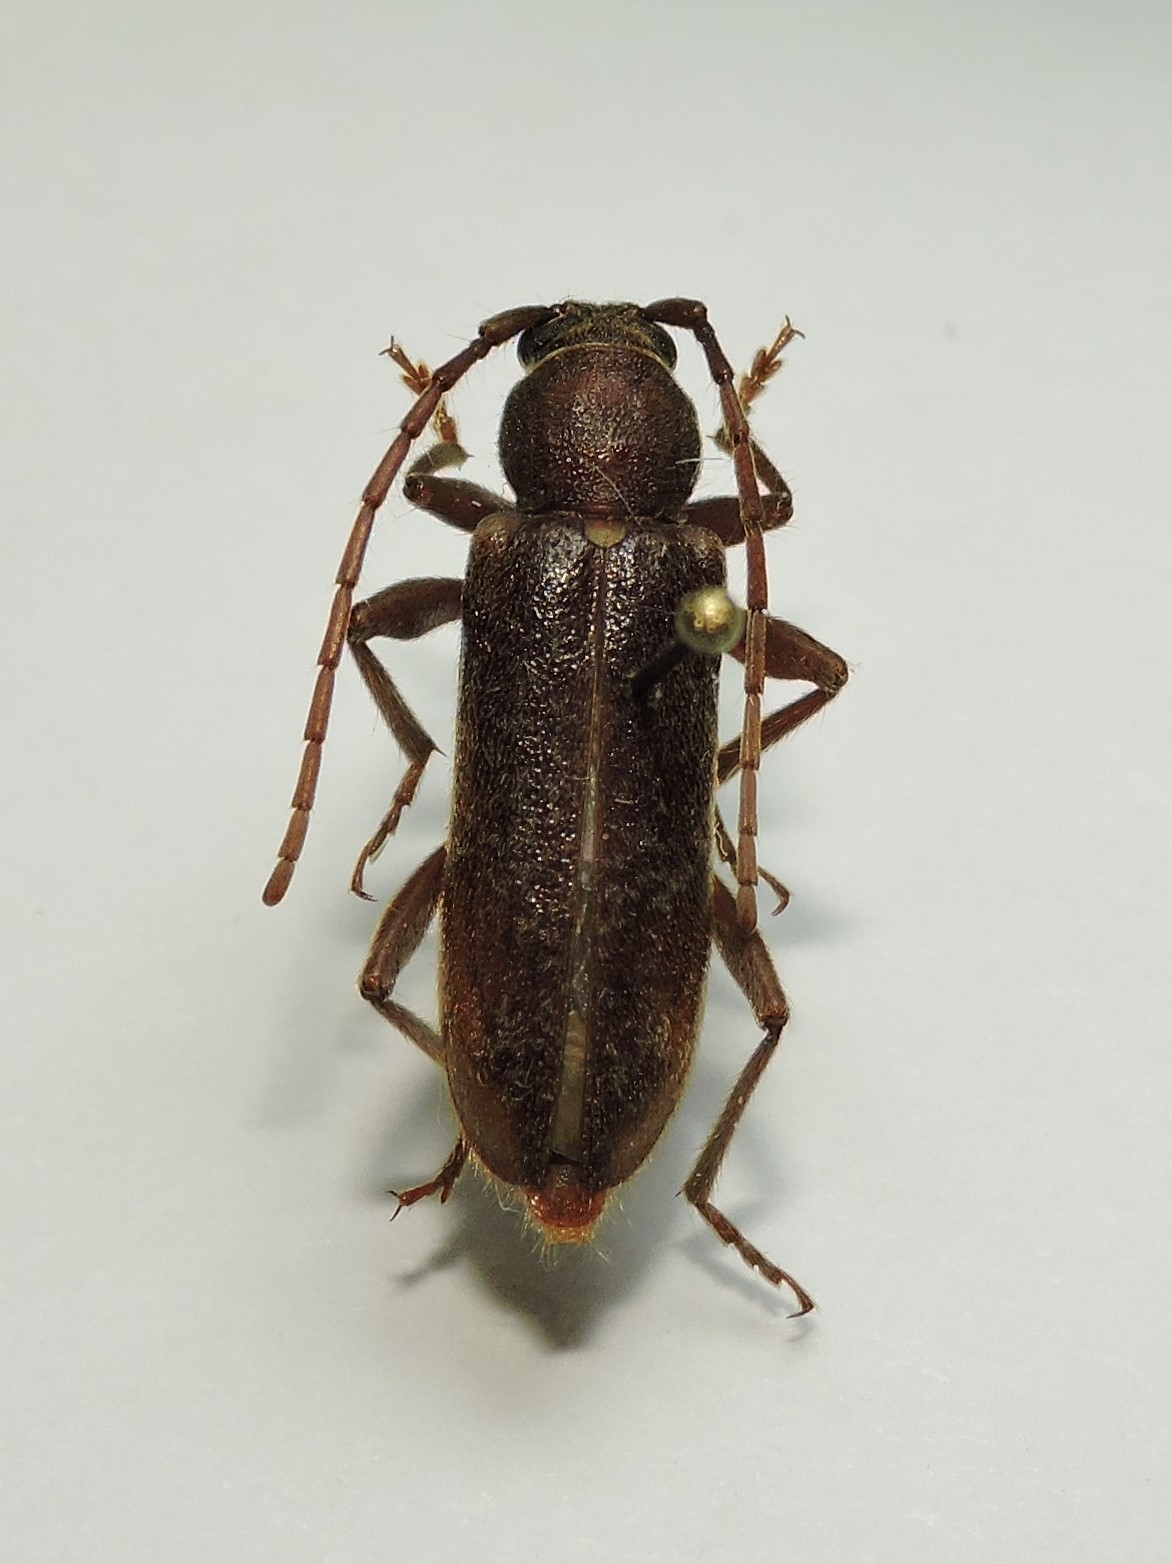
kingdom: Animalia
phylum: Arthropoda
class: Insecta
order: Coleoptera
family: Cerambycidae
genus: Trichoferus
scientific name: Trichoferus campestris
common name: Velvet long horned beetle
